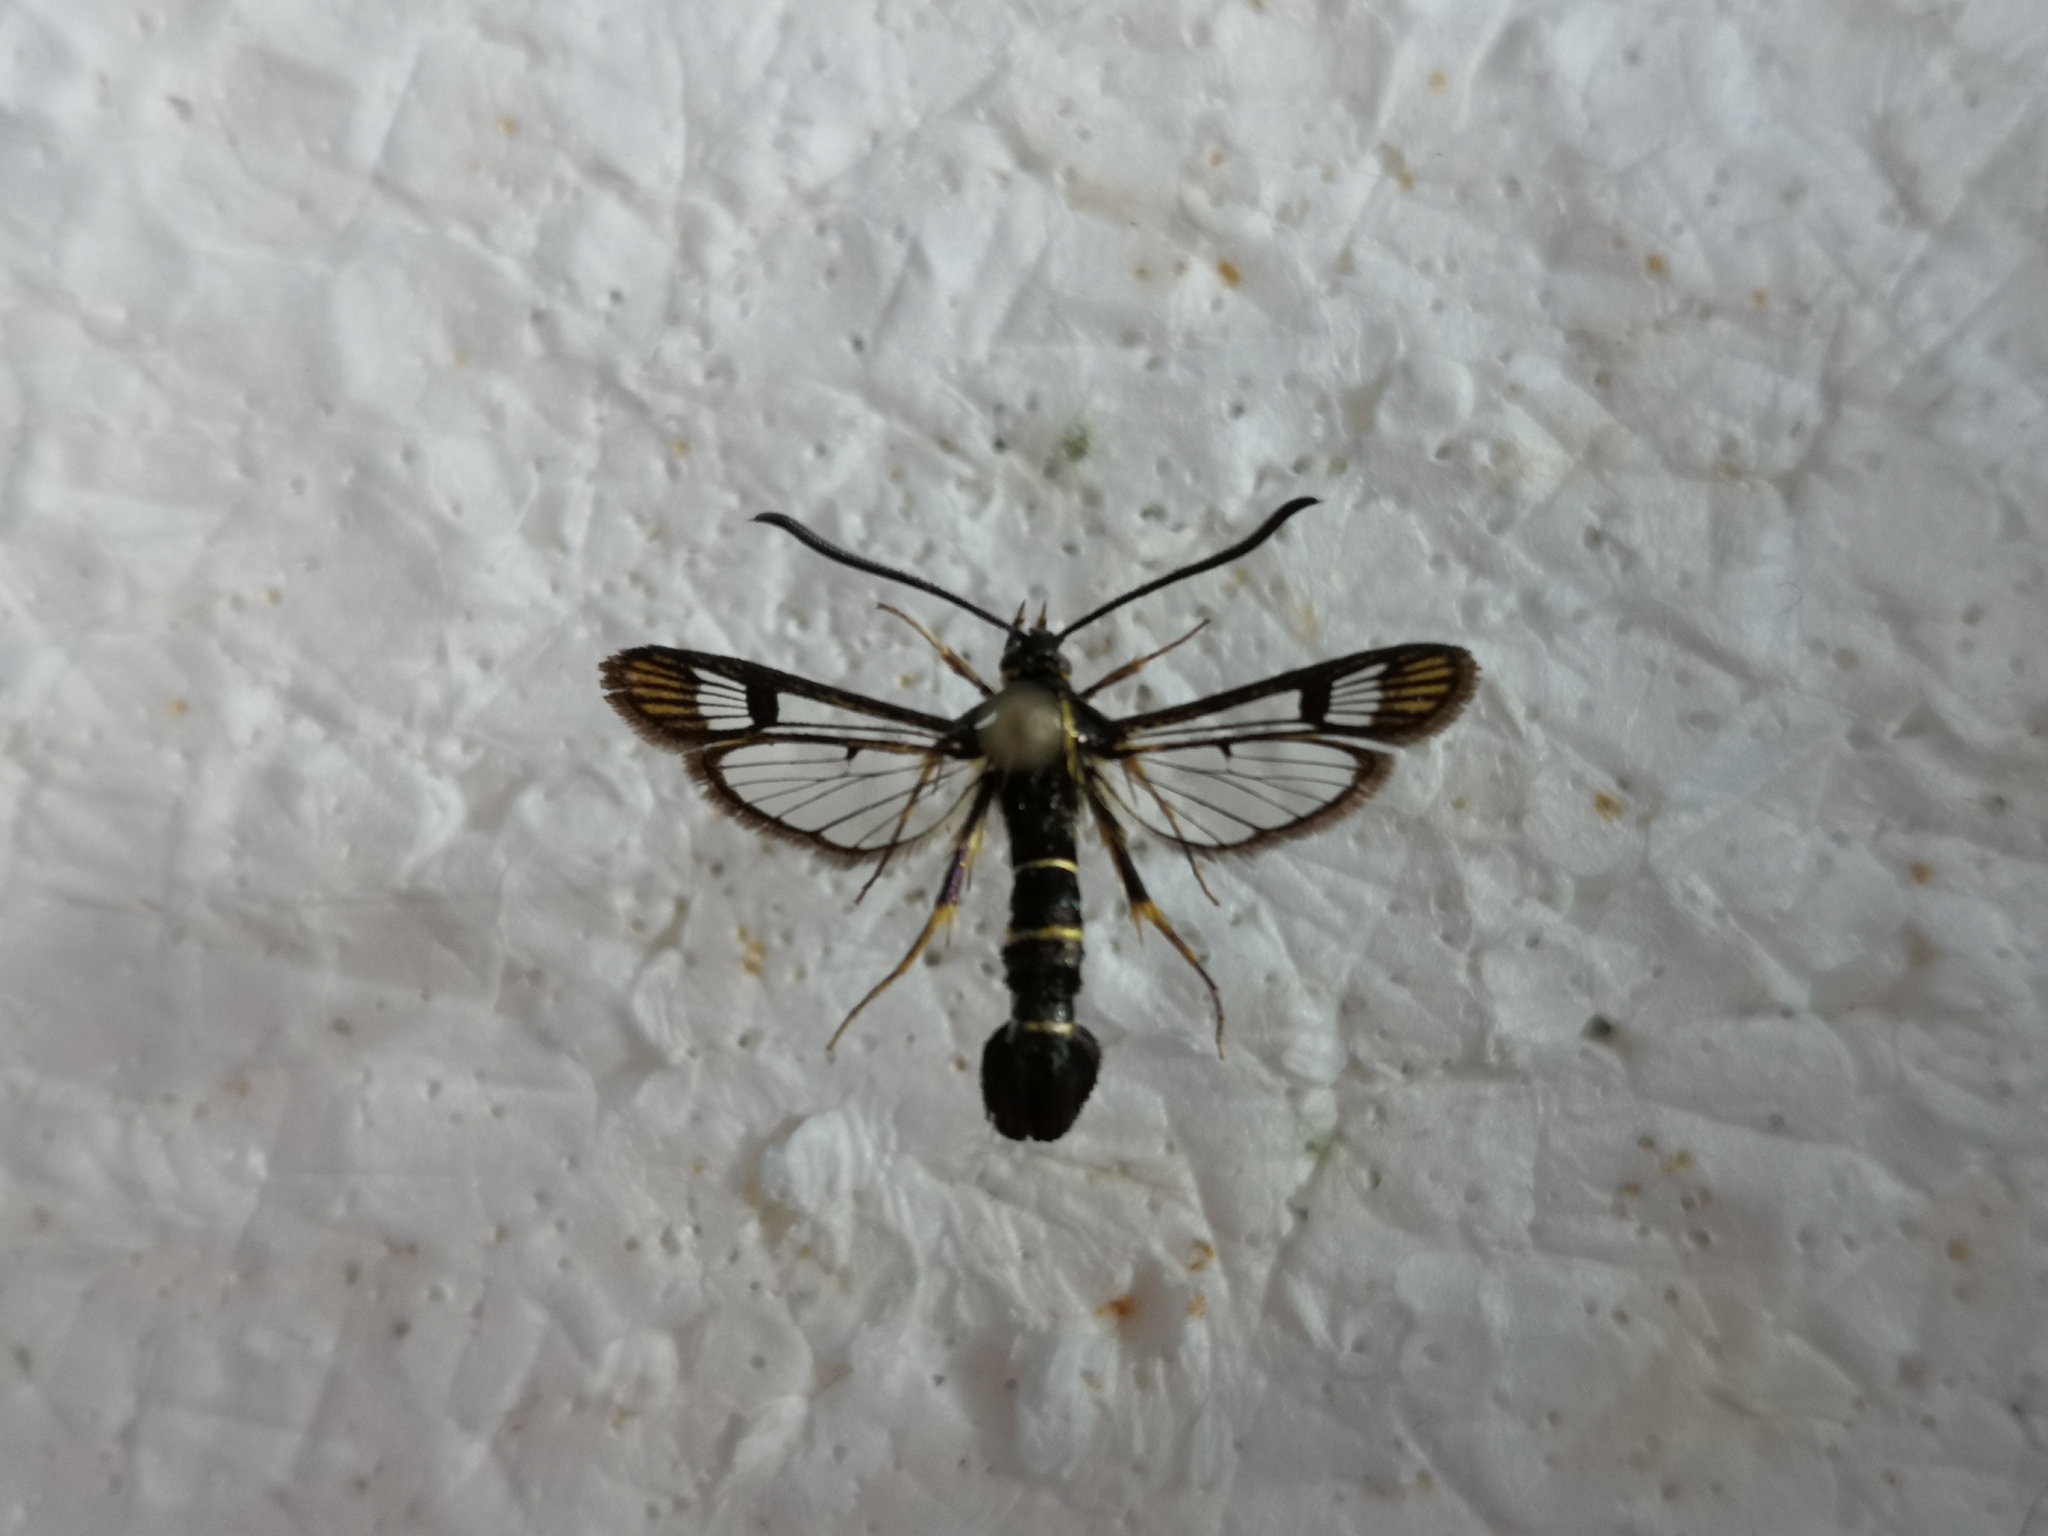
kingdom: Animalia
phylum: Arthropoda
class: Insecta
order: Lepidoptera
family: Sesiidae
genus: Synanthedon
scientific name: Synanthedon tipuliformis
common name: Currant clearwing
